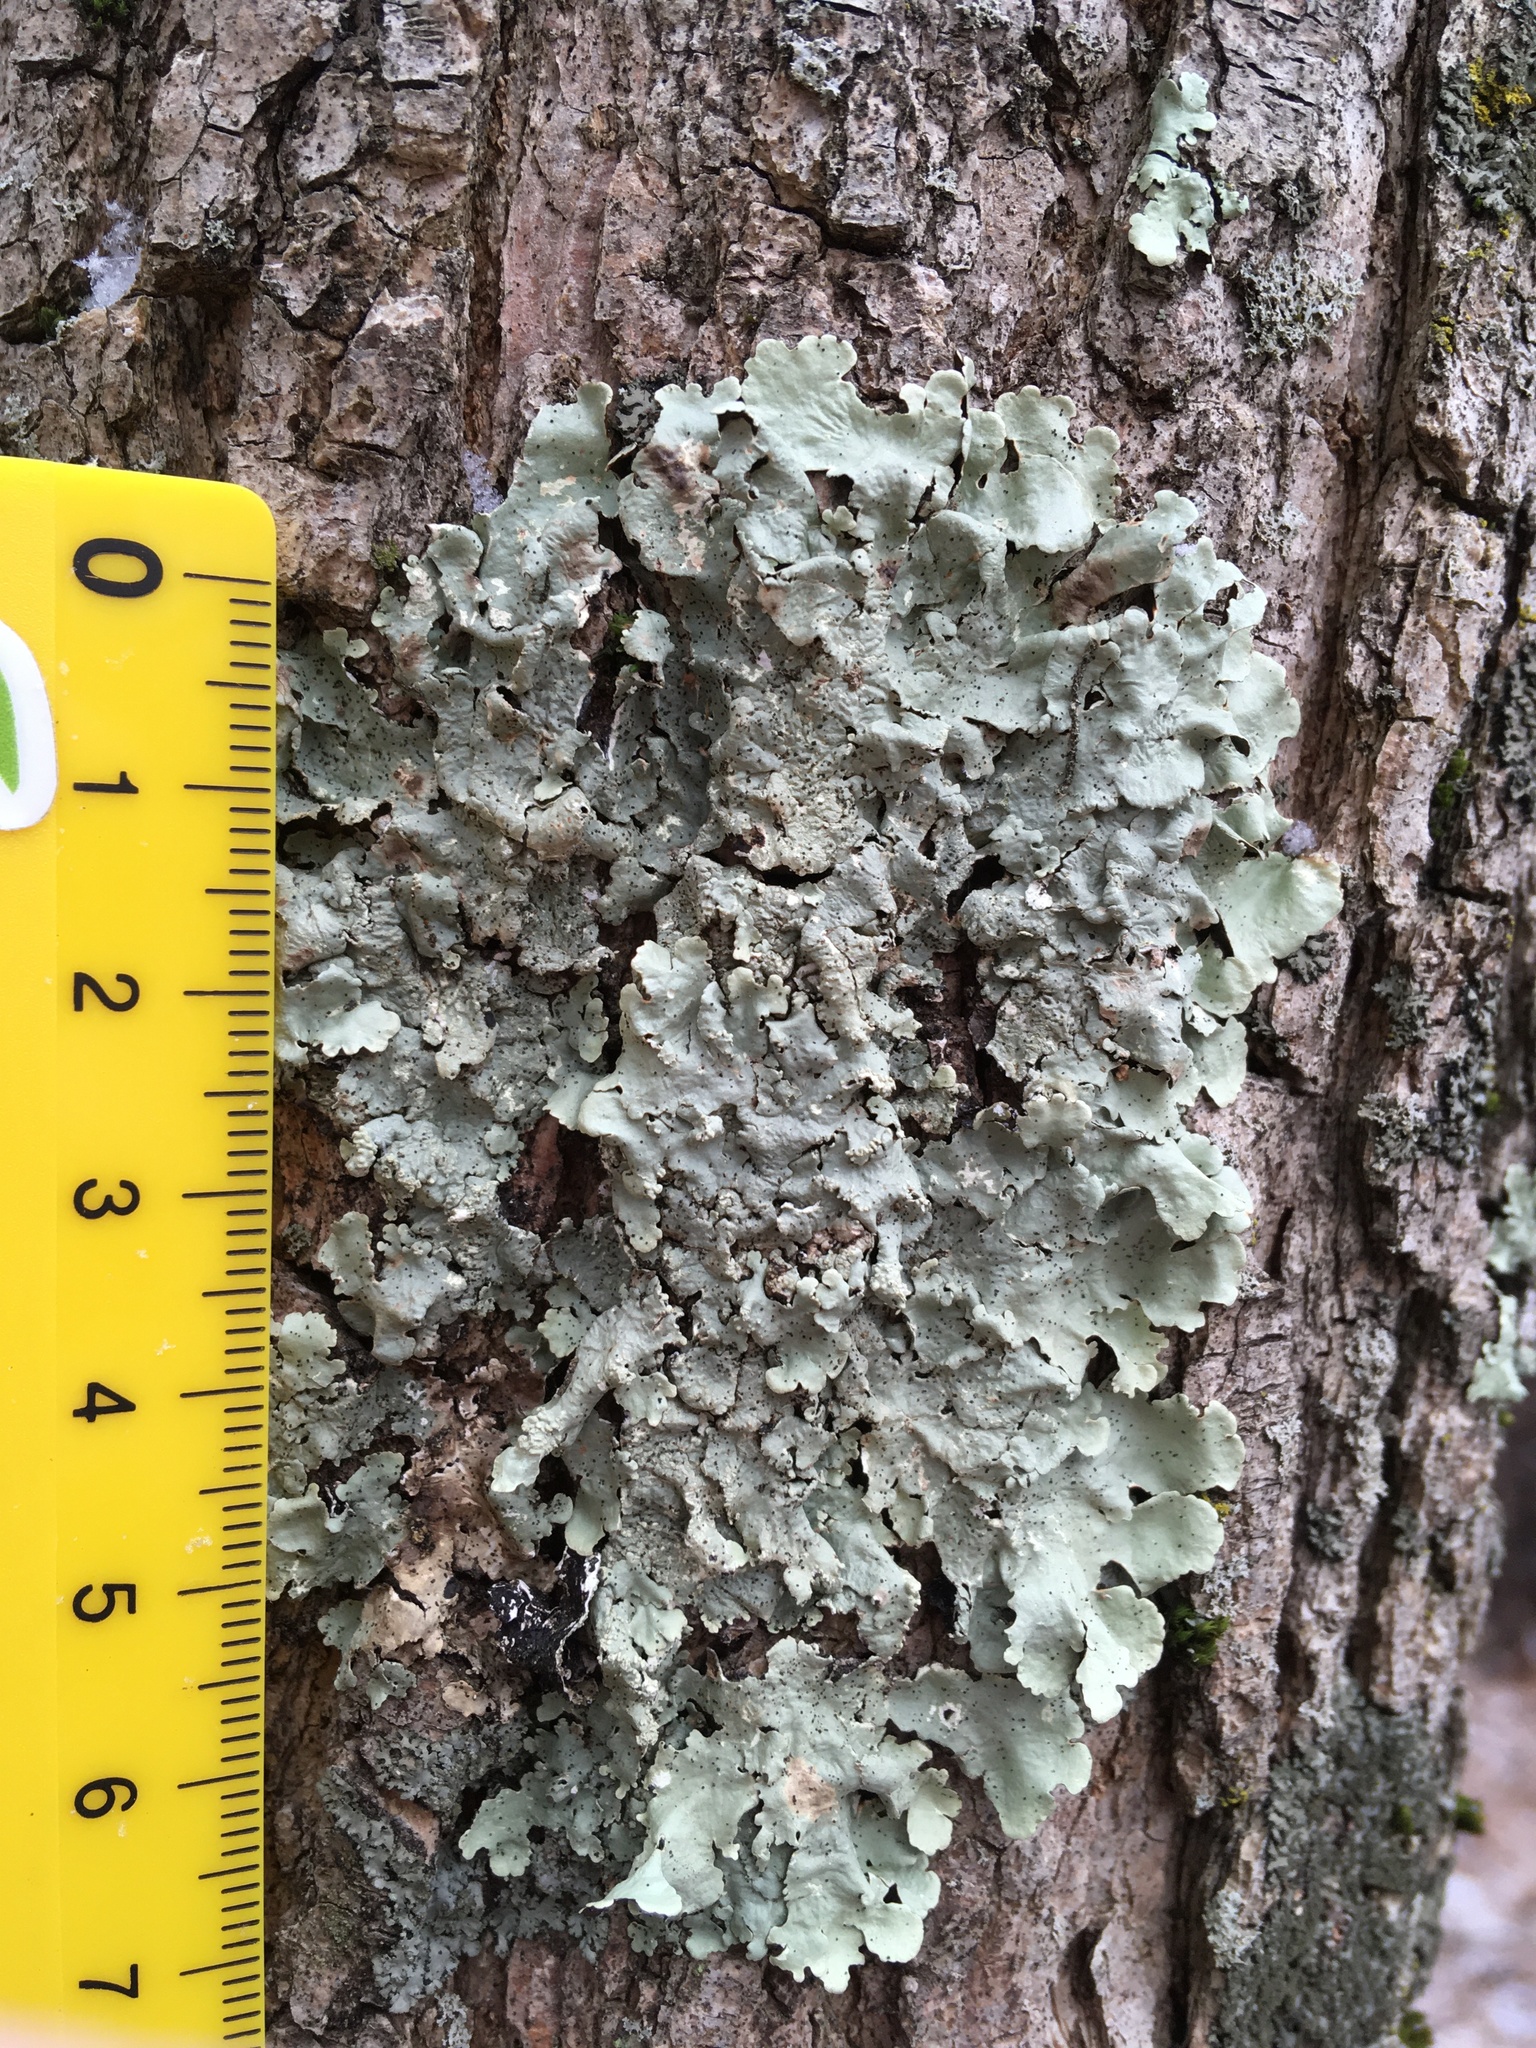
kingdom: Fungi
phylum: Ascomycota
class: Lecanoromycetes
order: Lecanorales
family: Parmeliaceae
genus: Flavoparmelia
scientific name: Flavoparmelia caperata
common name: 40-mile per hour lichen
